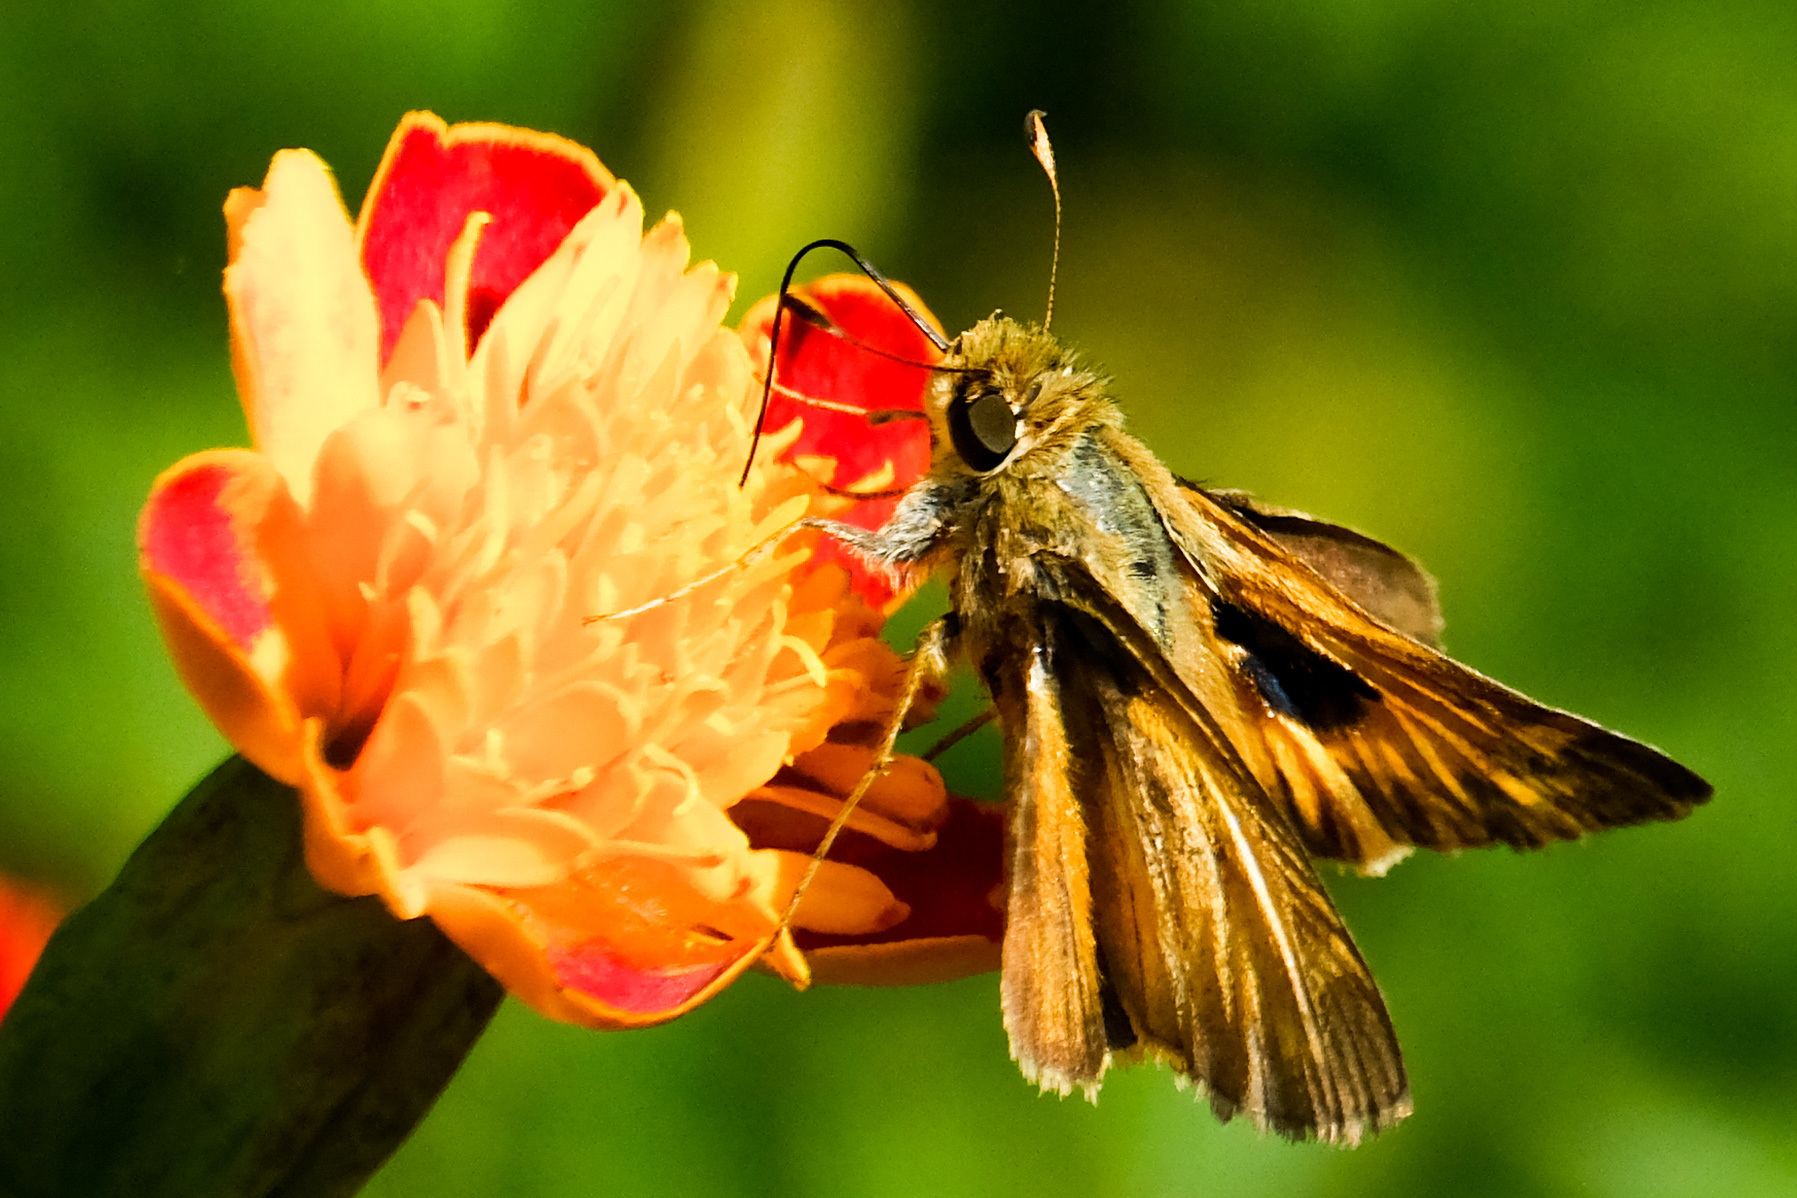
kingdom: Animalia
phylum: Arthropoda
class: Insecta
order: Lepidoptera
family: Hesperiidae
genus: Atalopedes
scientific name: Atalopedes
